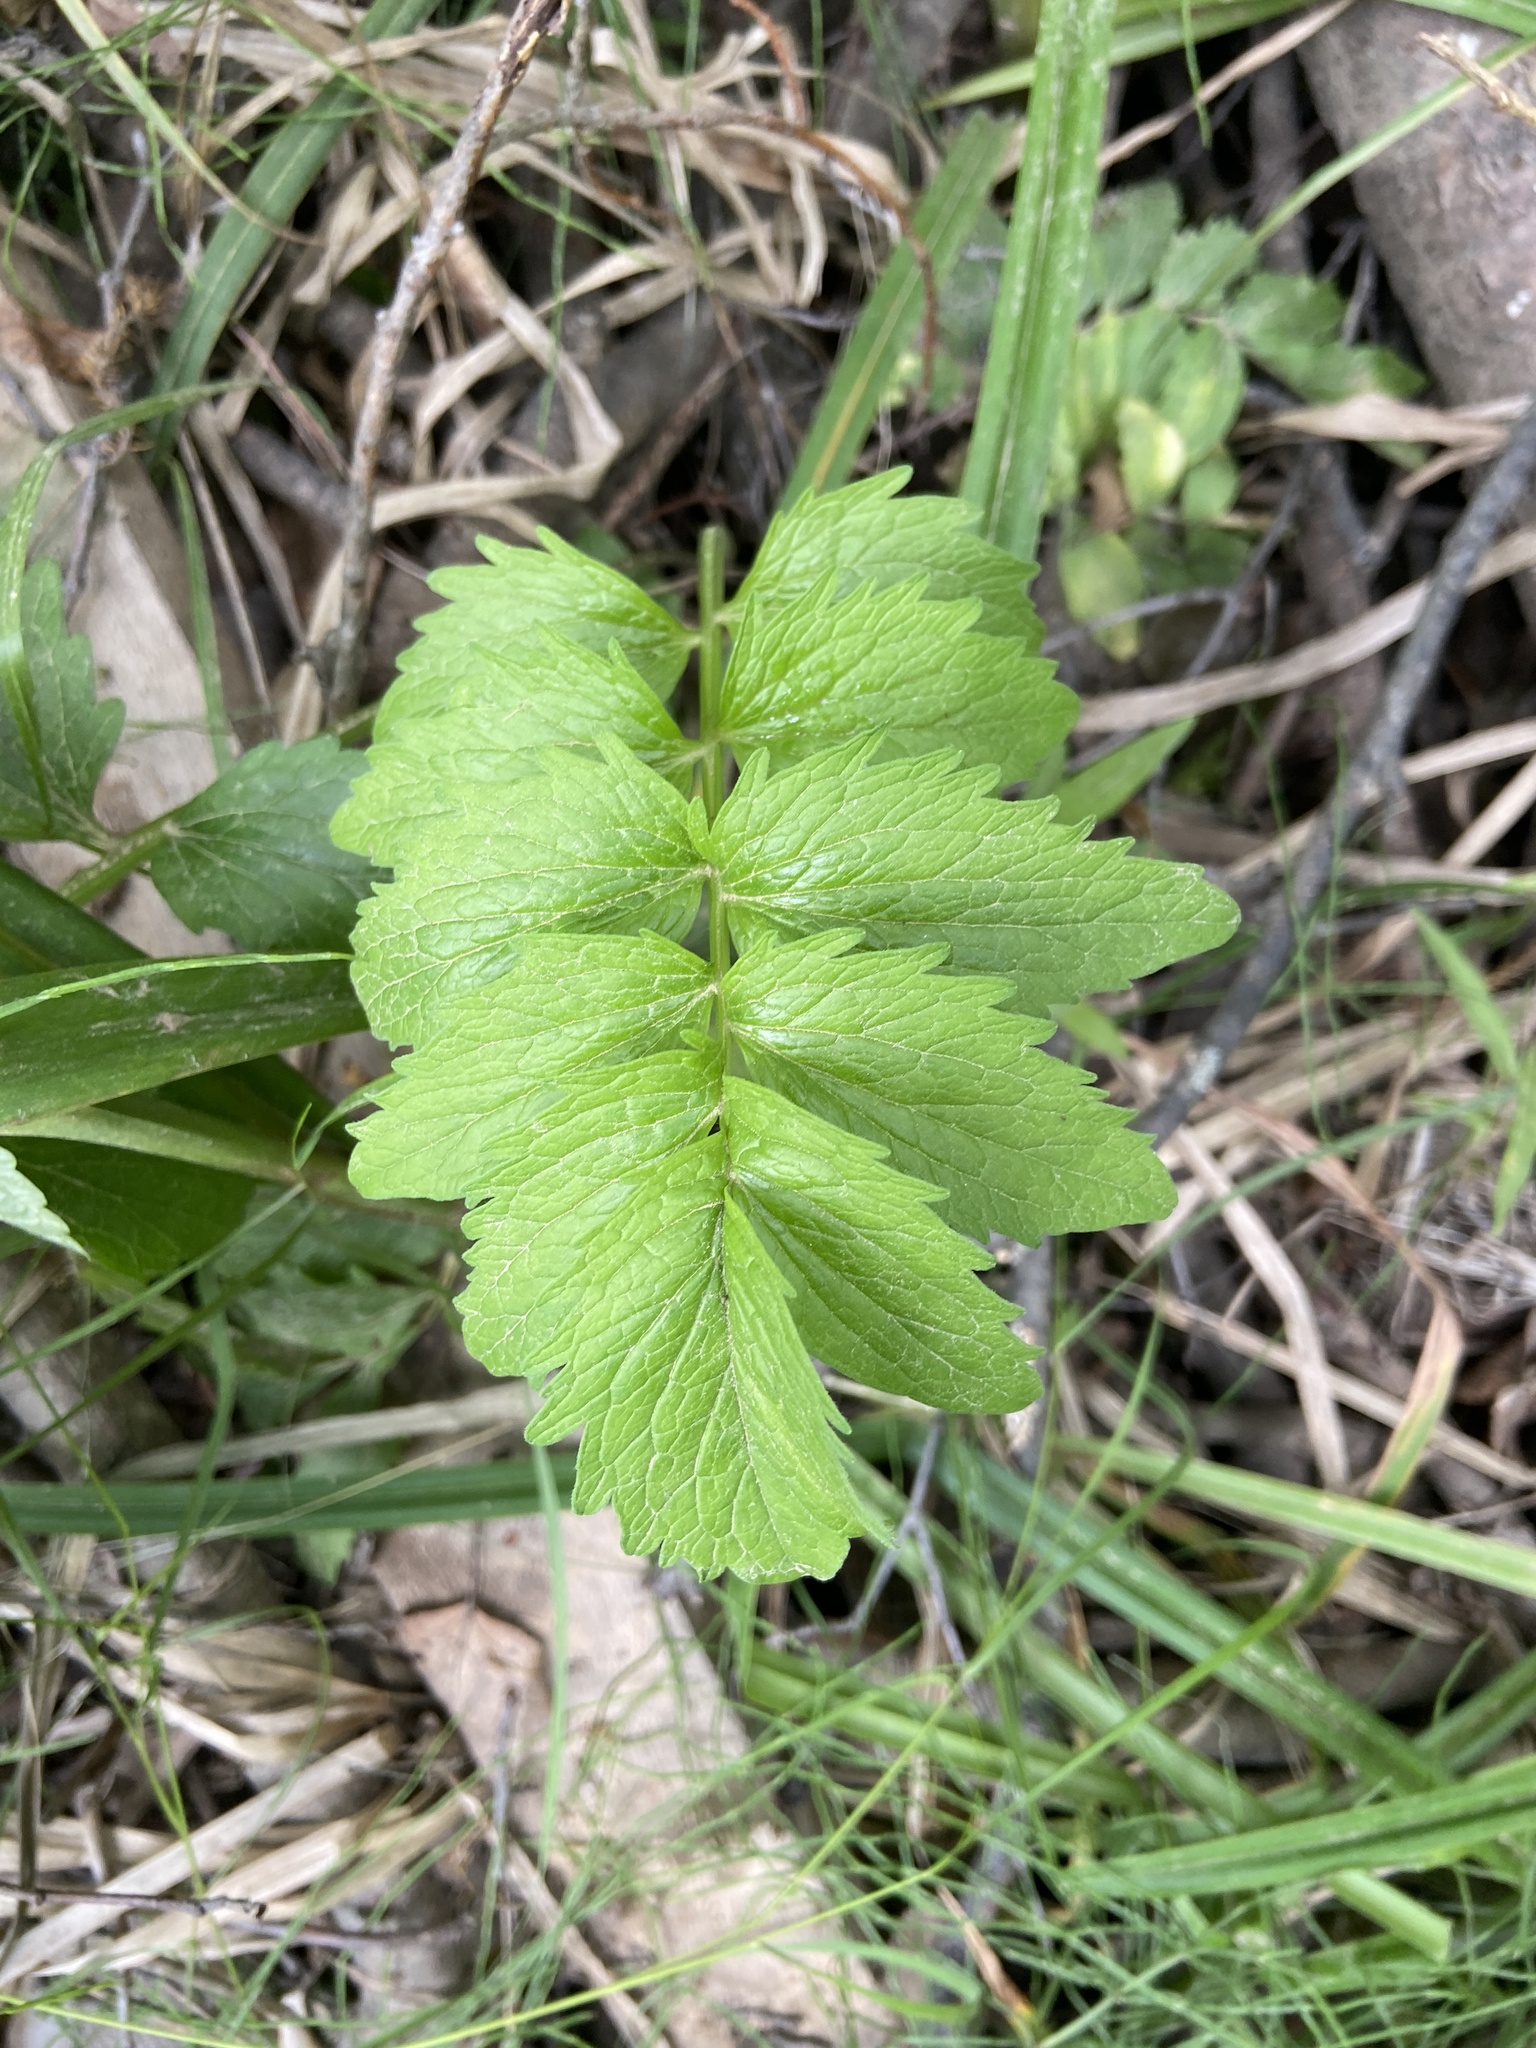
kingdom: Plantae
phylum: Tracheophyta
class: Magnoliopsida
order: Dipsacales
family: Caprifoliaceae
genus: Valeriana
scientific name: Valeriana officinalis
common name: Common valerian
